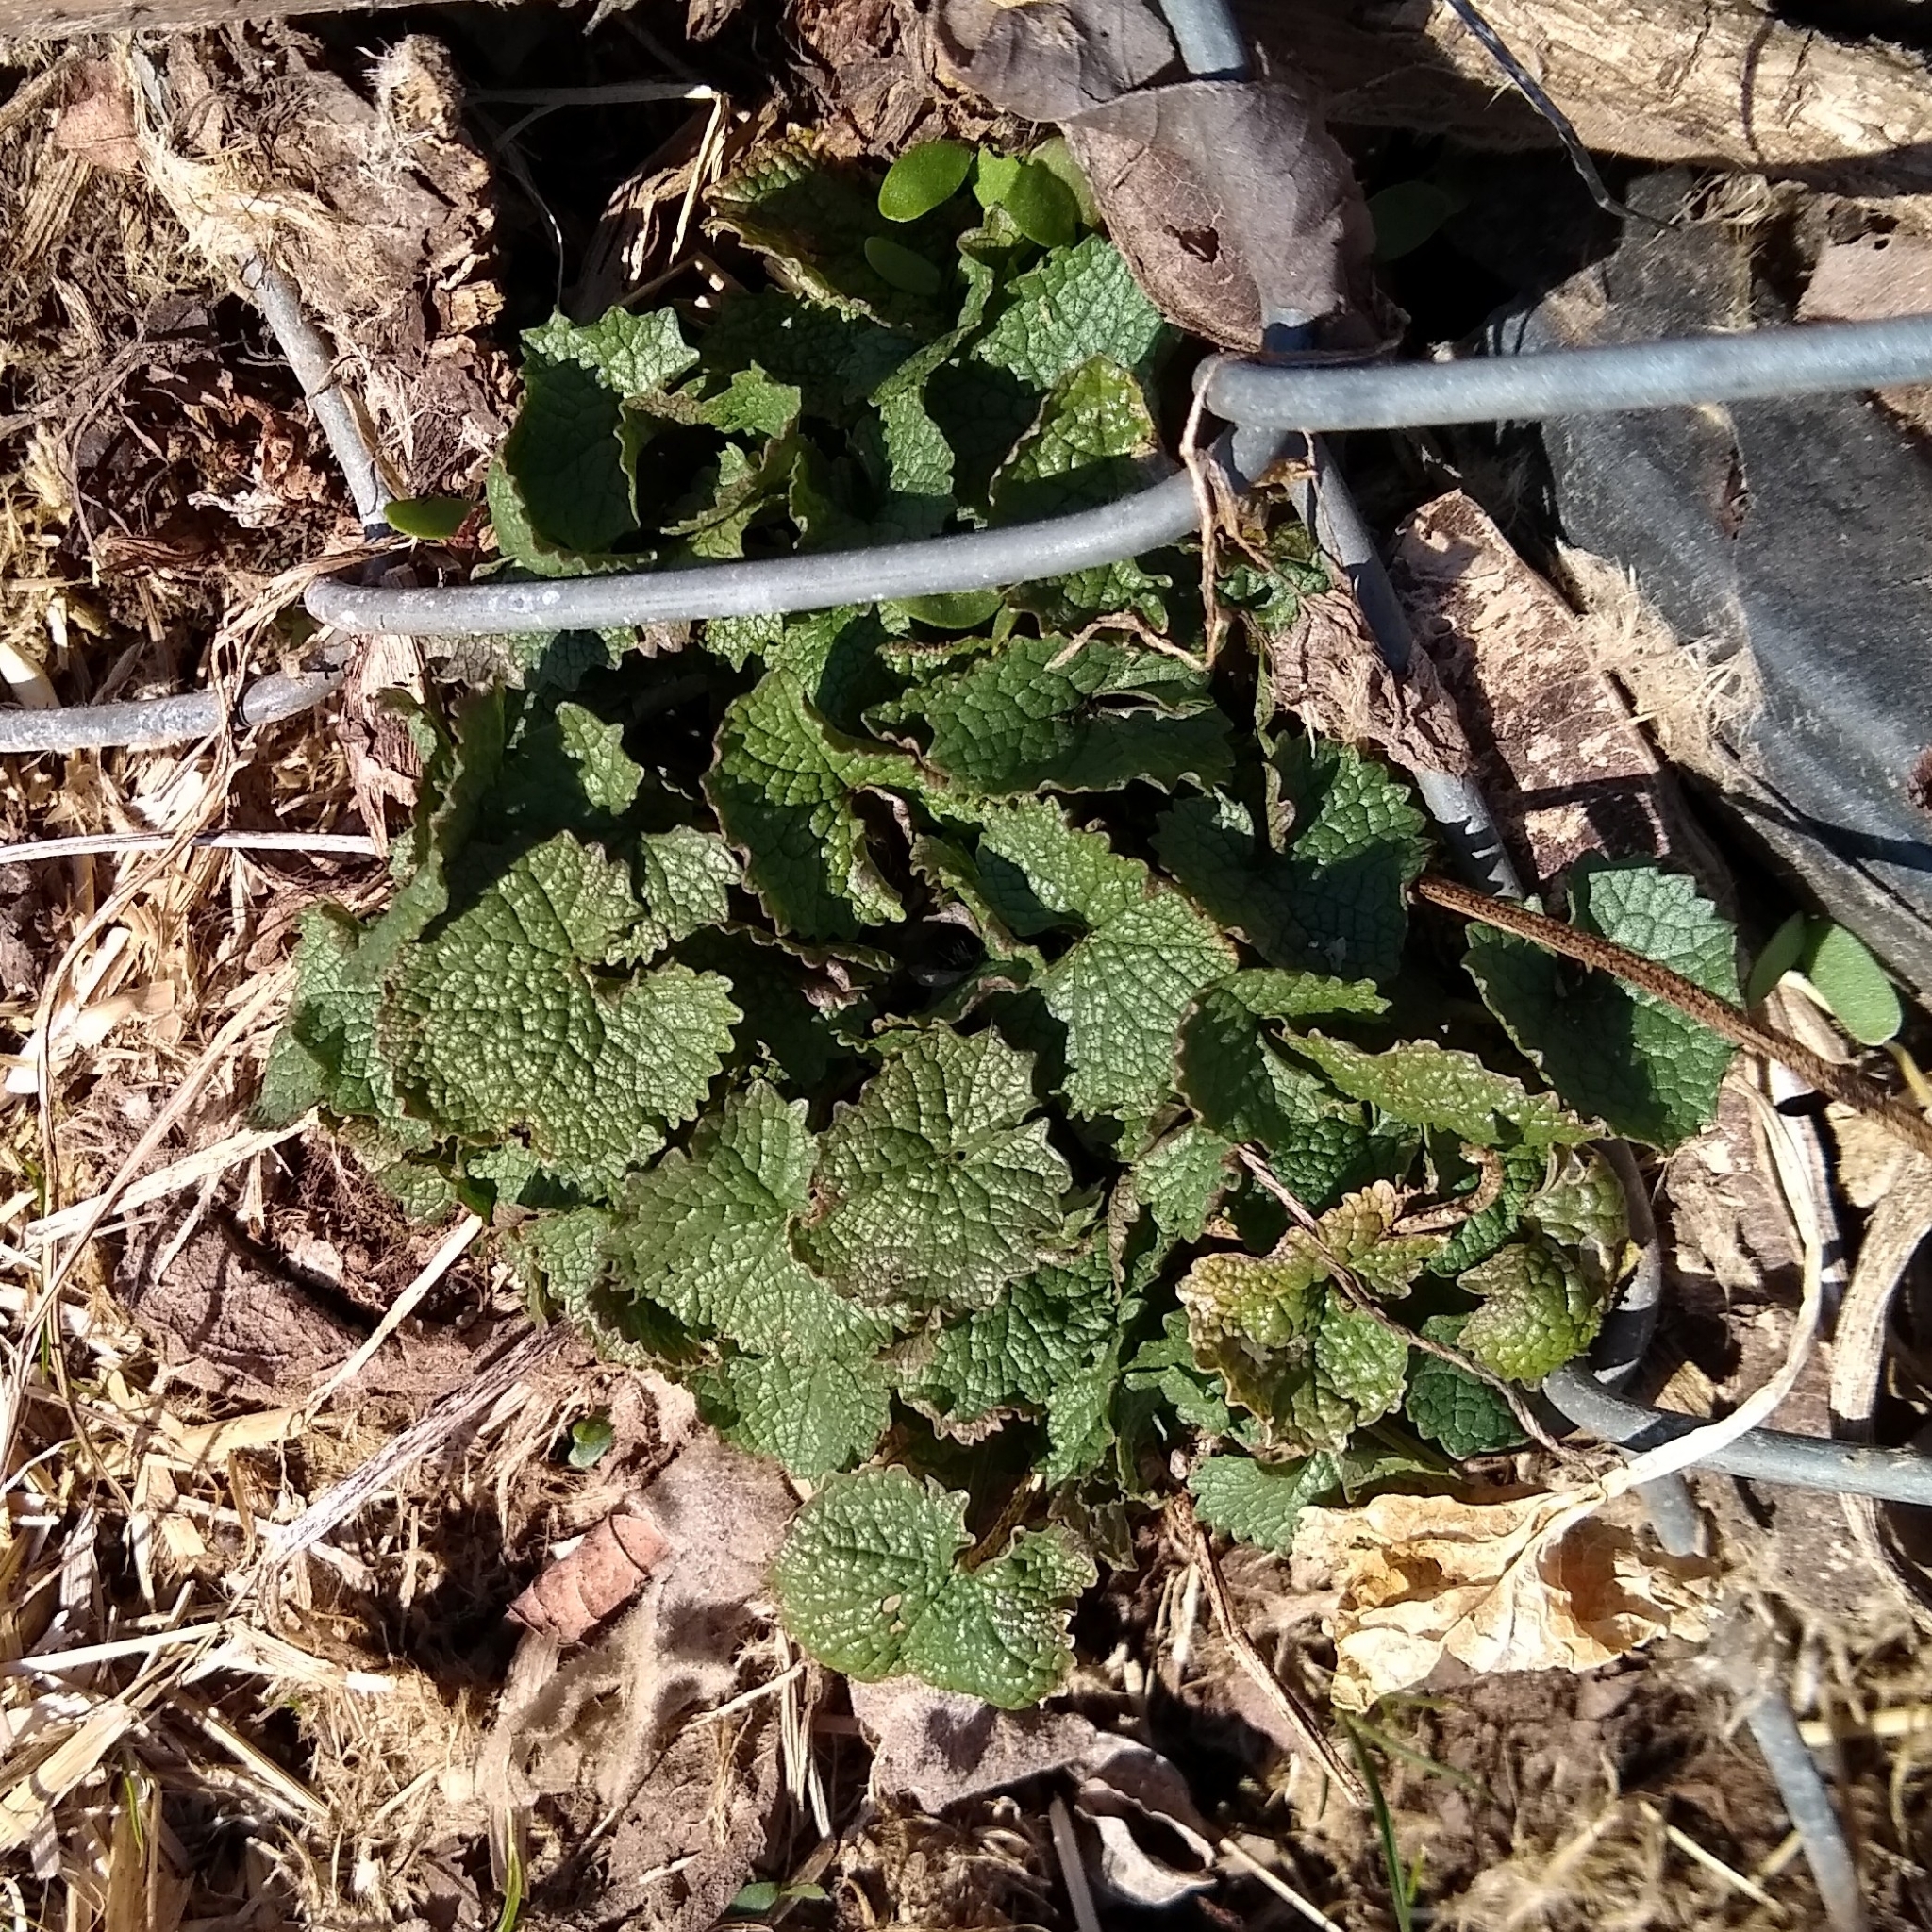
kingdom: Plantae
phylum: Tracheophyta
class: Magnoliopsida
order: Brassicales
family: Brassicaceae
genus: Alliaria
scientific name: Alliaria petiolata
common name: Garlic mustard
